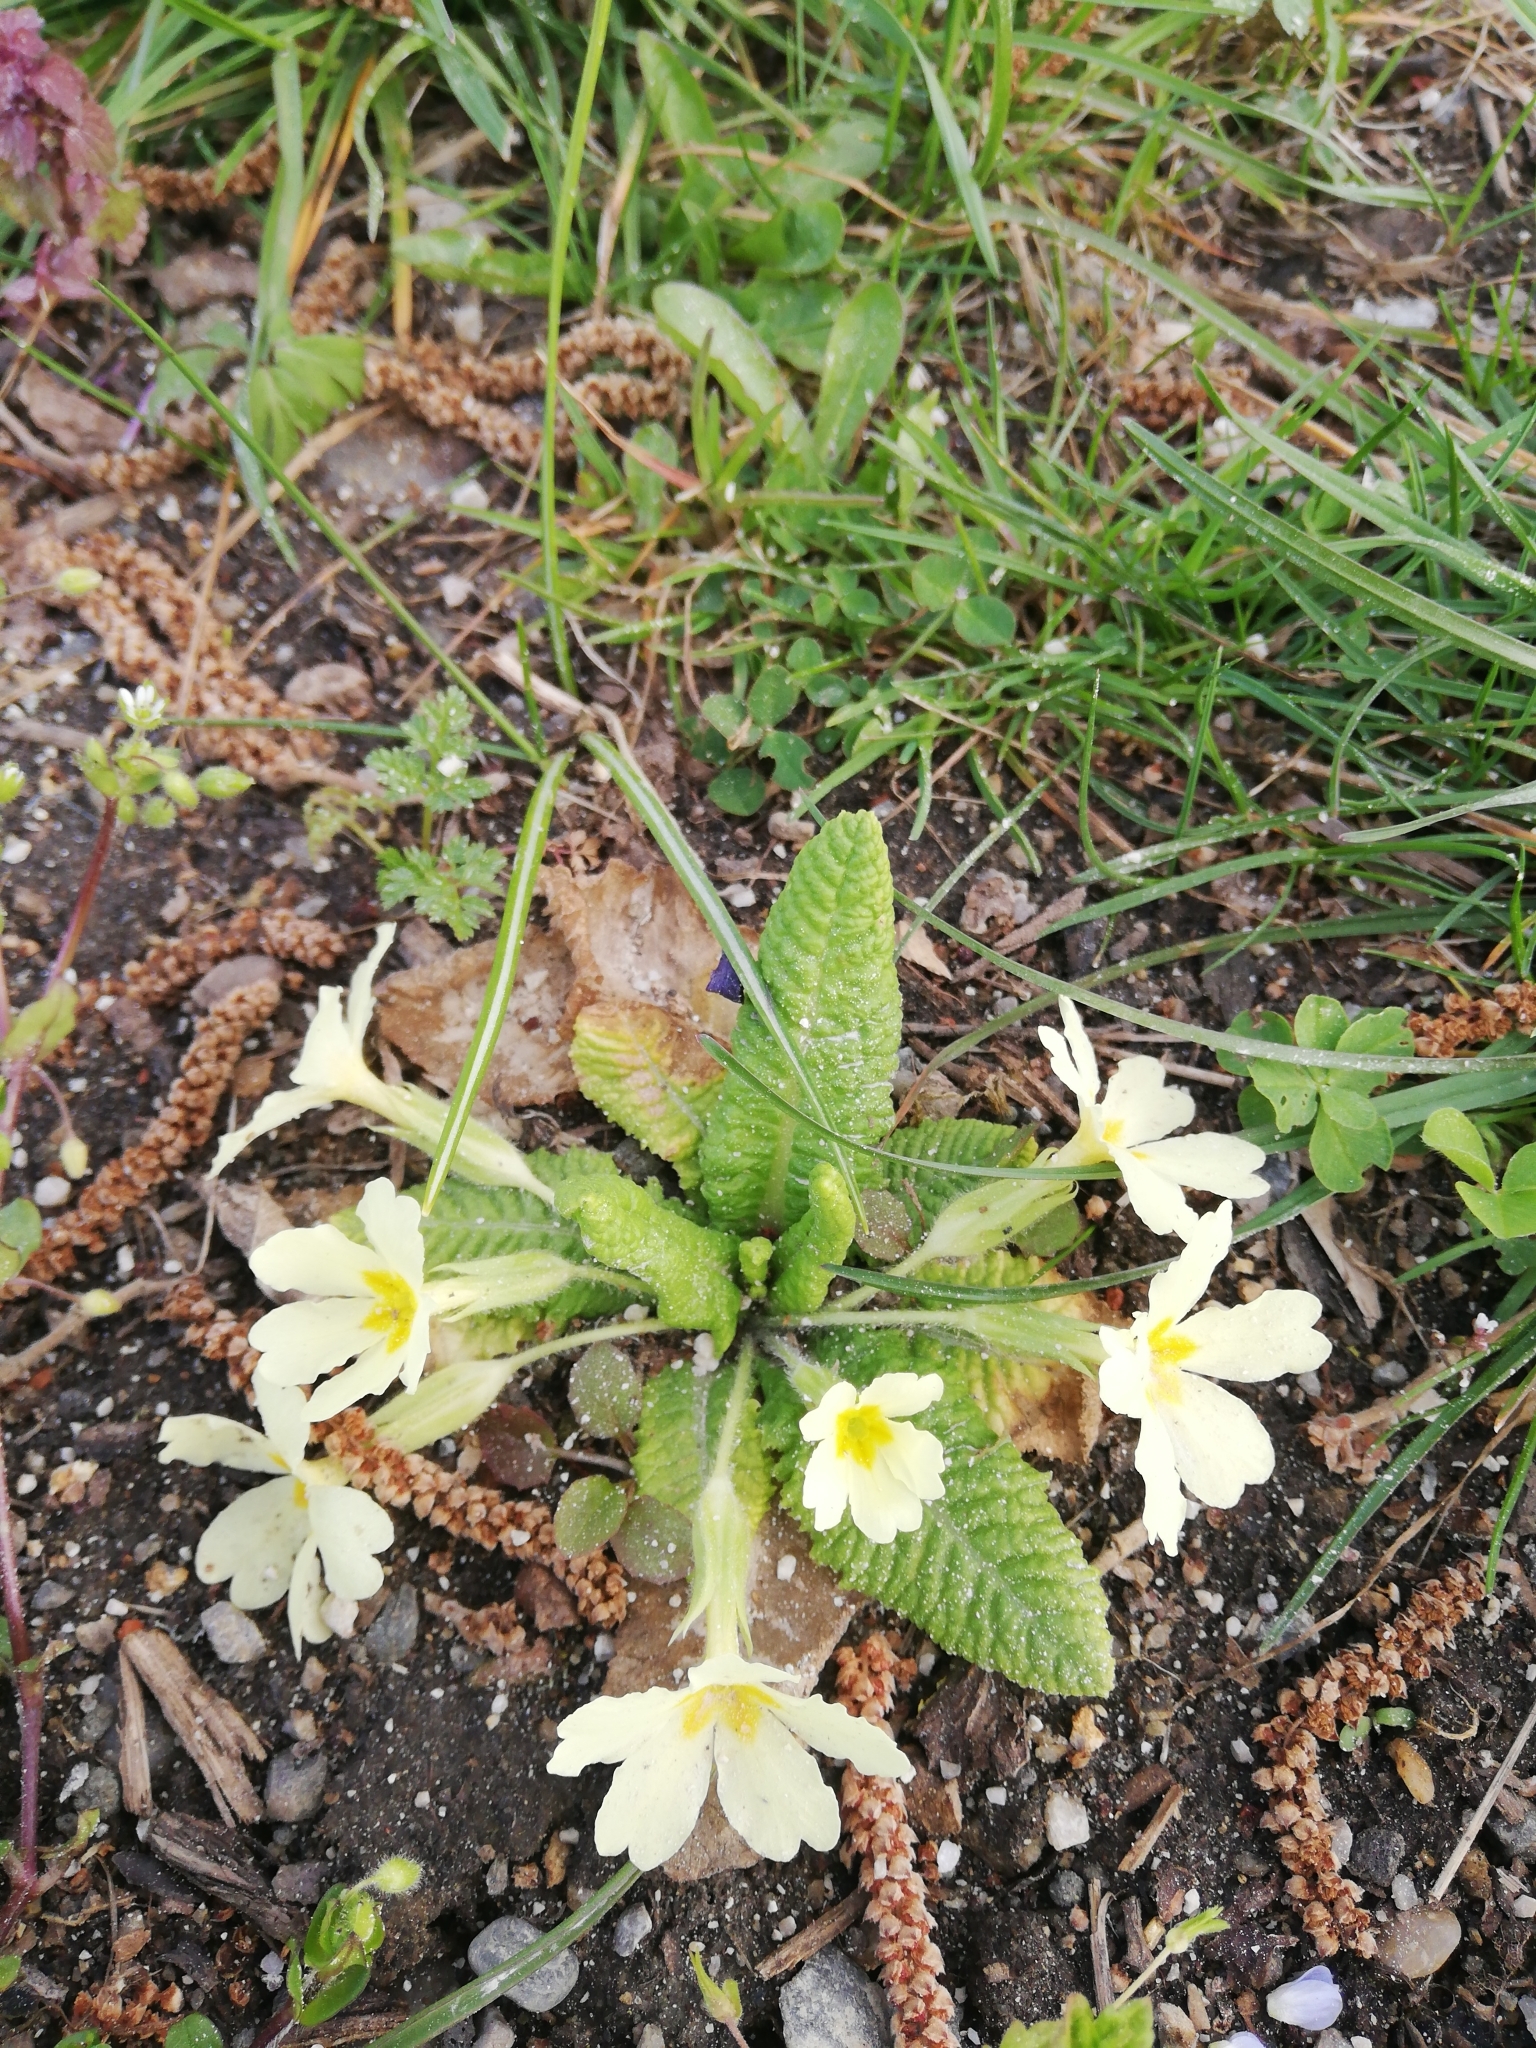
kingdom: Plantae
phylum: Tracheophyta
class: Magnoliopsida
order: Ericales
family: Primulaceae
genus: Primula
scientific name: Primula vulgaris
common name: Primrose
